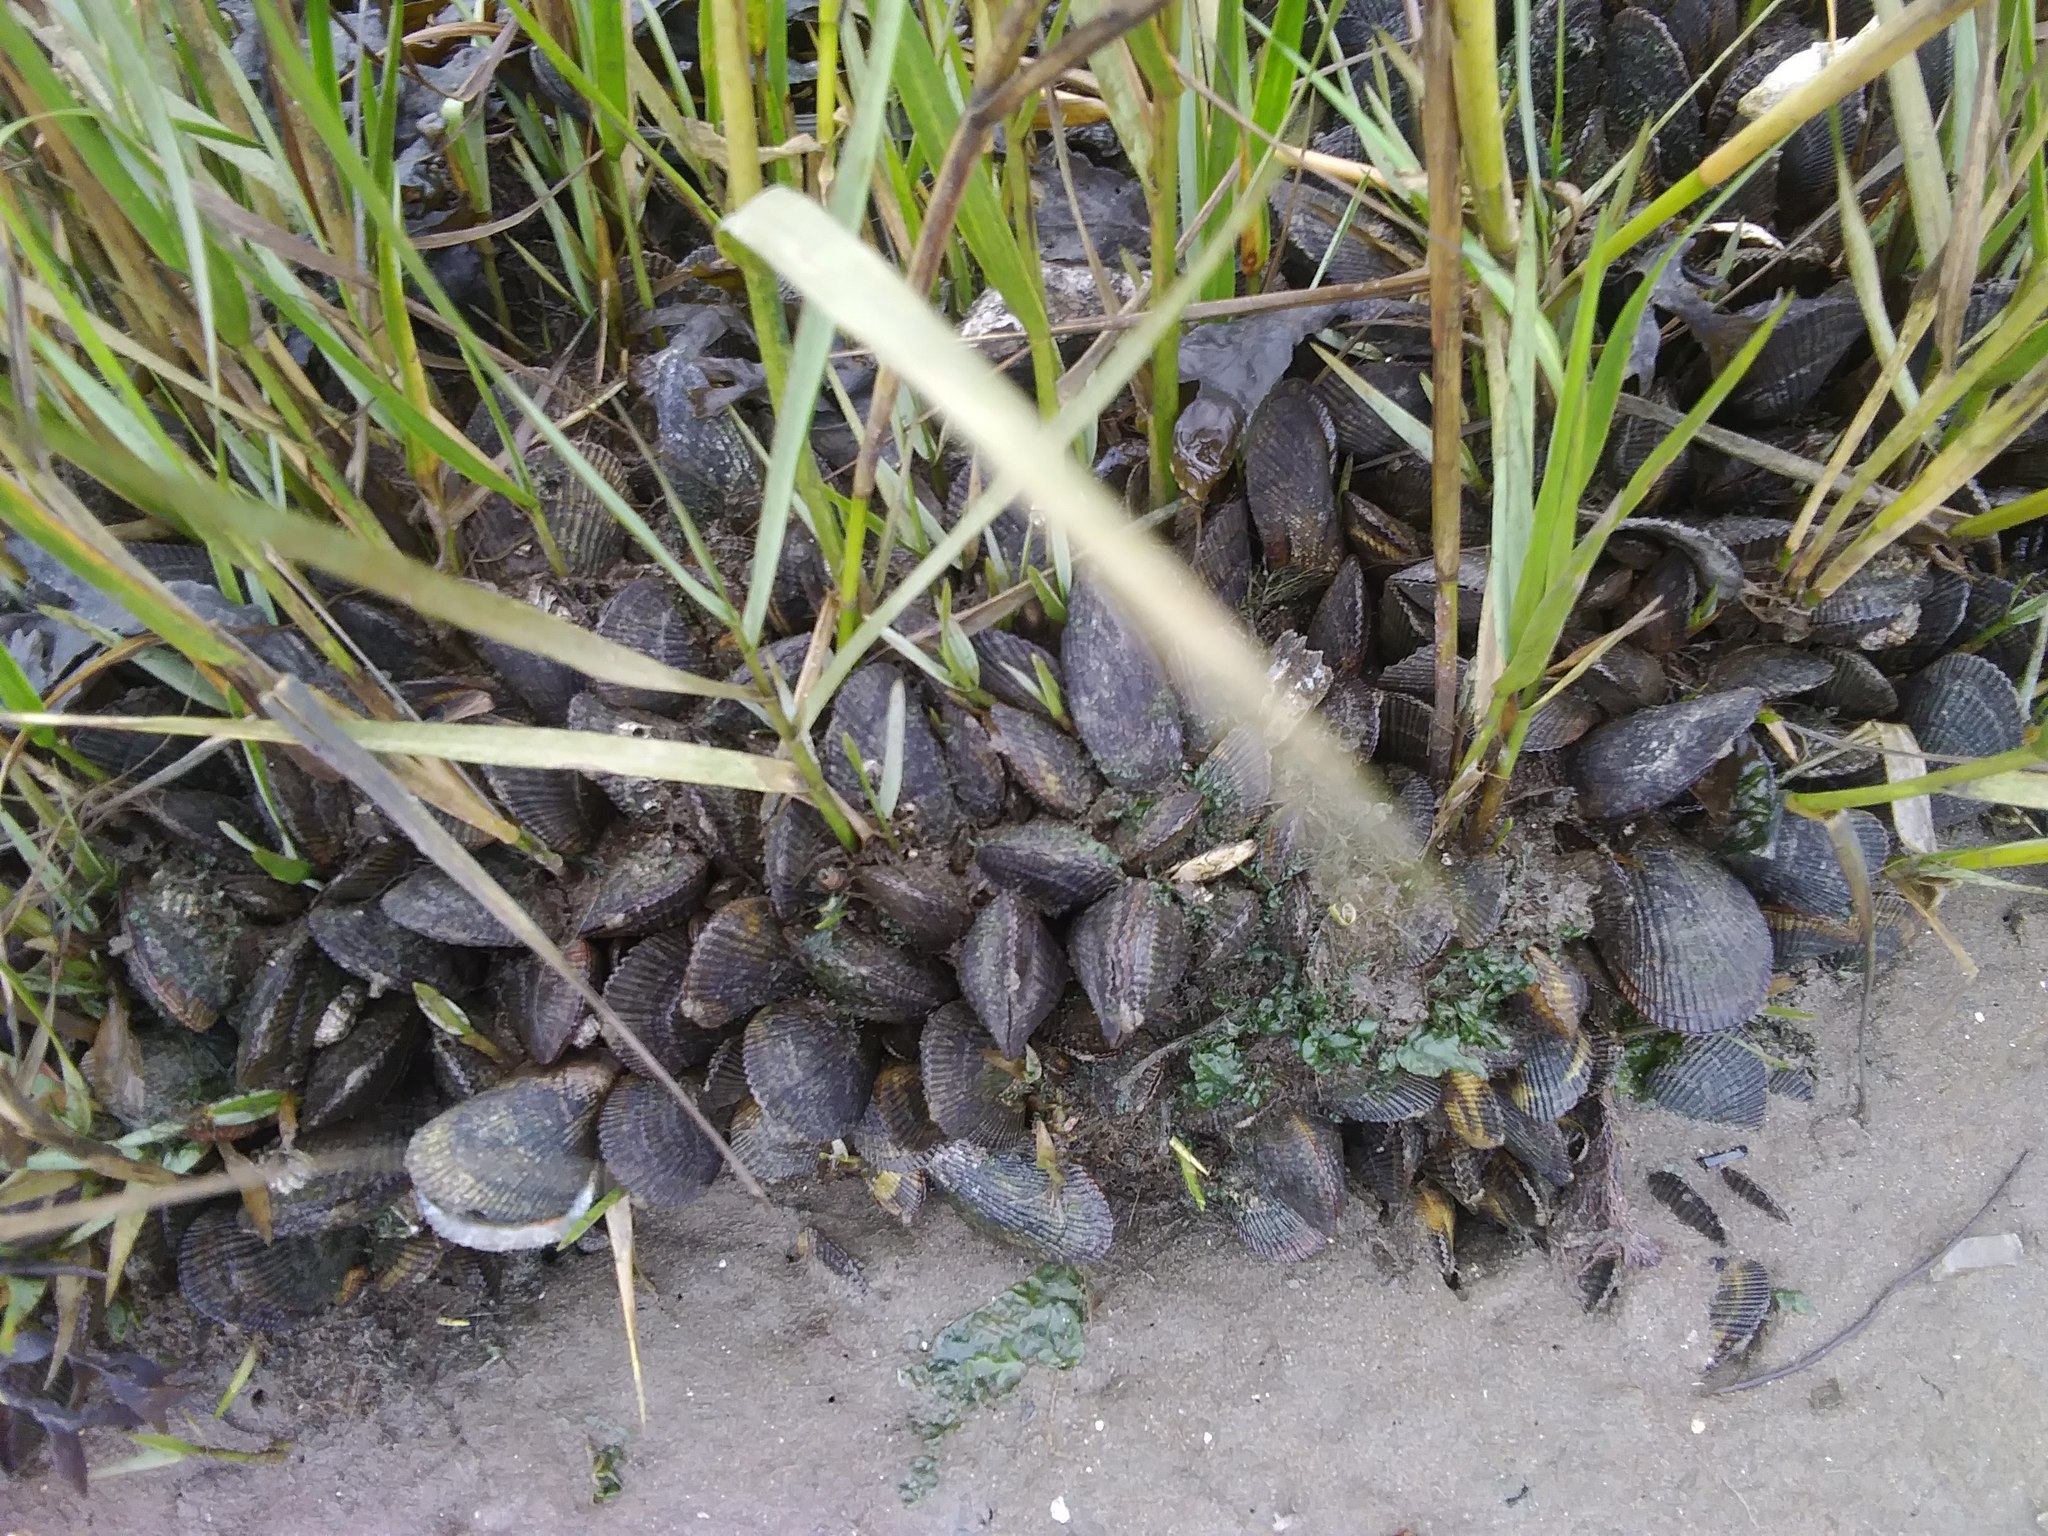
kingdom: Animalia
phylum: Mollusca
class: Bivalvia
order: Mytilida
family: Mytilidae
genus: Geukensia
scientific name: Geukensia demissa
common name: Ribbed mussel
